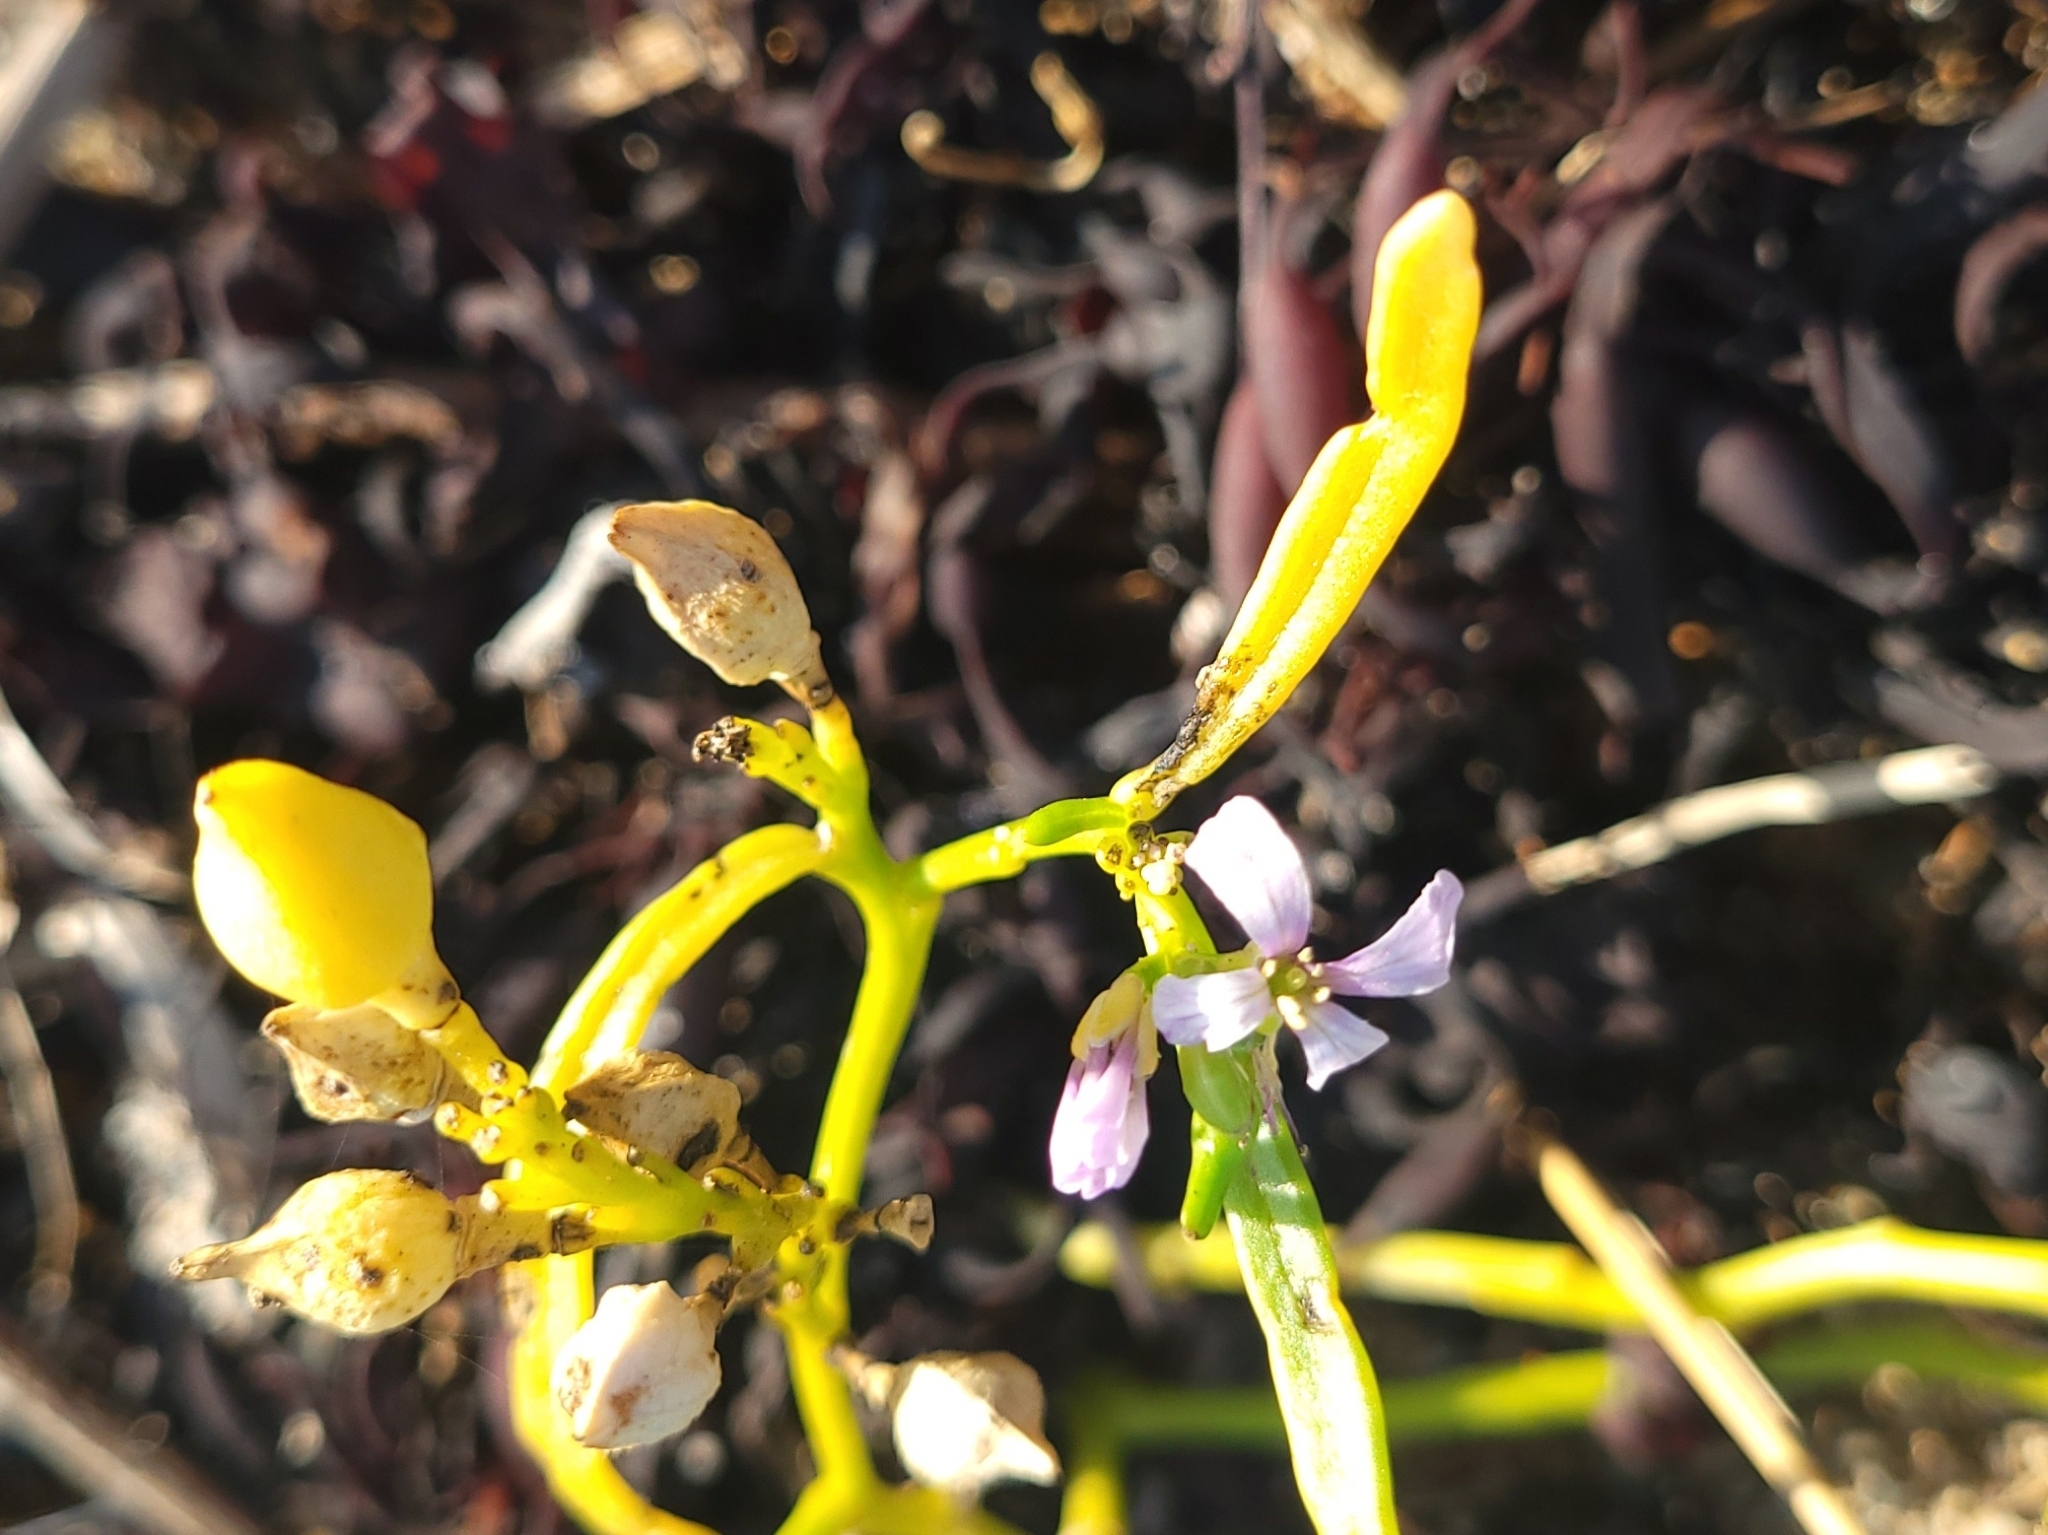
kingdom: Plantae
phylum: Tracheophyta
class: Magnoliopsida
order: Brassicales
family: Brassicaceae
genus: Cakile
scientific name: Cakile edentula
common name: American sea rocket
